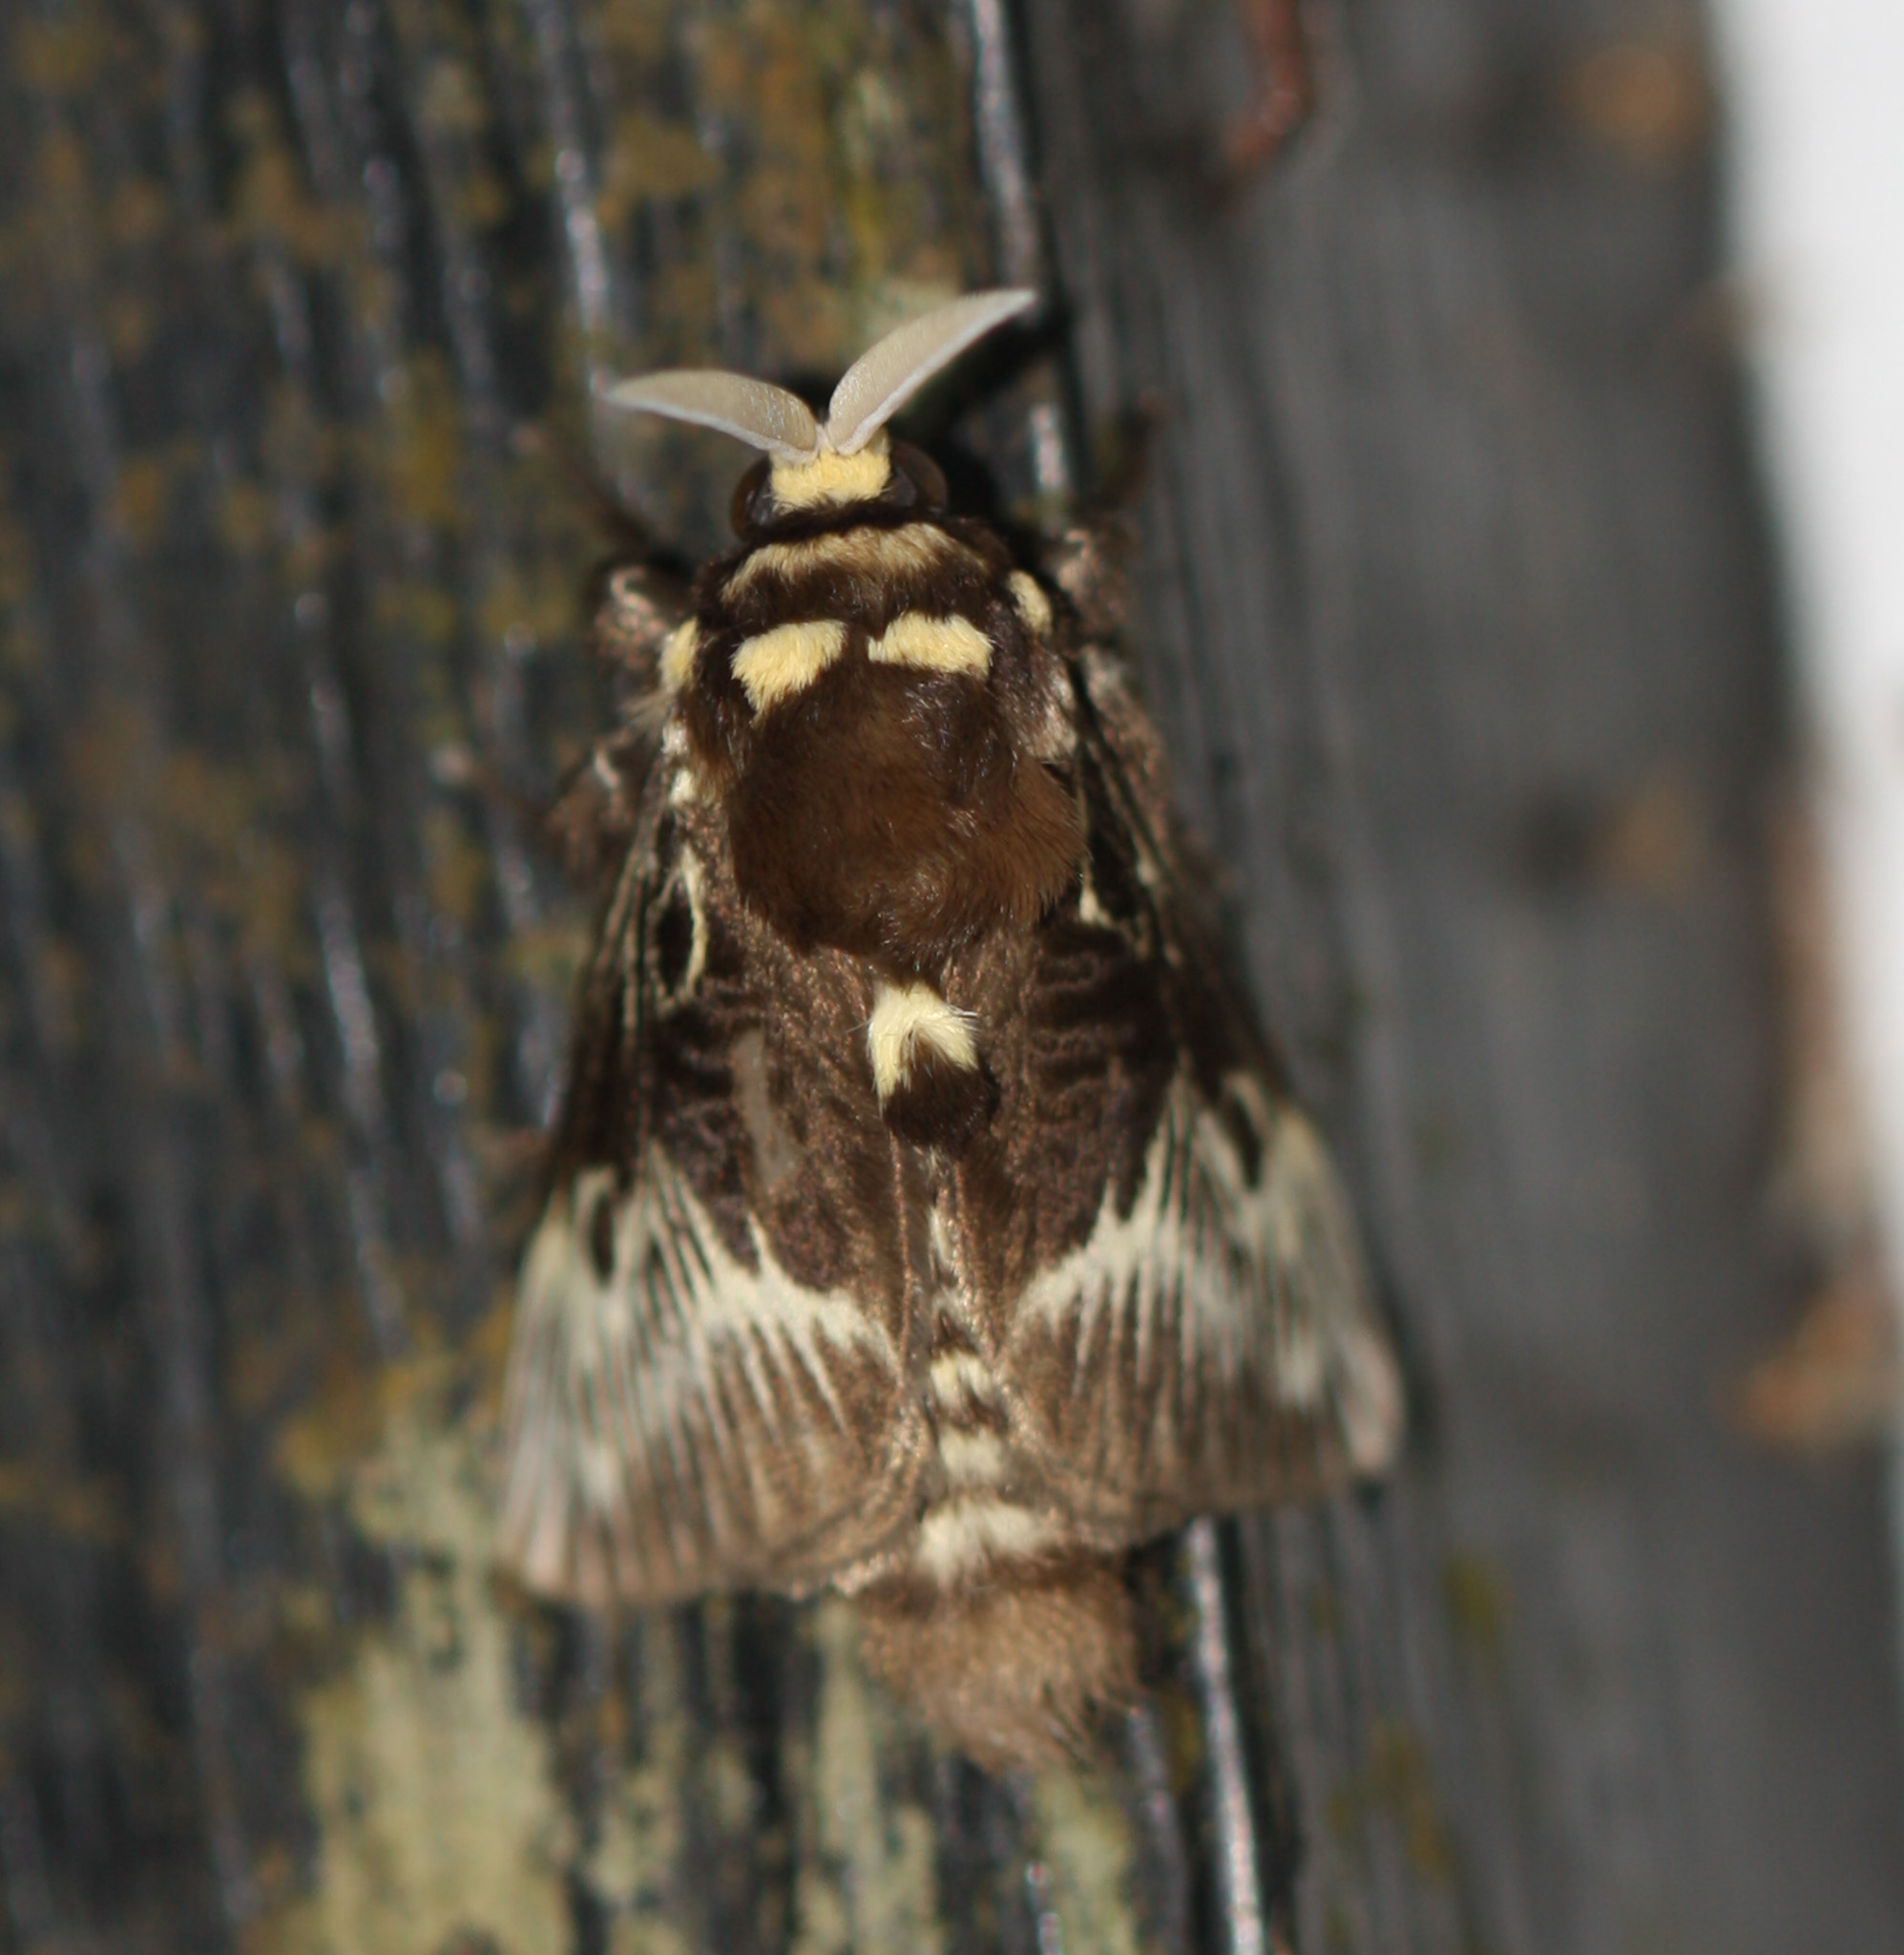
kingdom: Animalia
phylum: Arthropoda
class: Insecta
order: Lepidoptera
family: Megalopygidae
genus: Megalopyge
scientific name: Megalopyge albicollis
